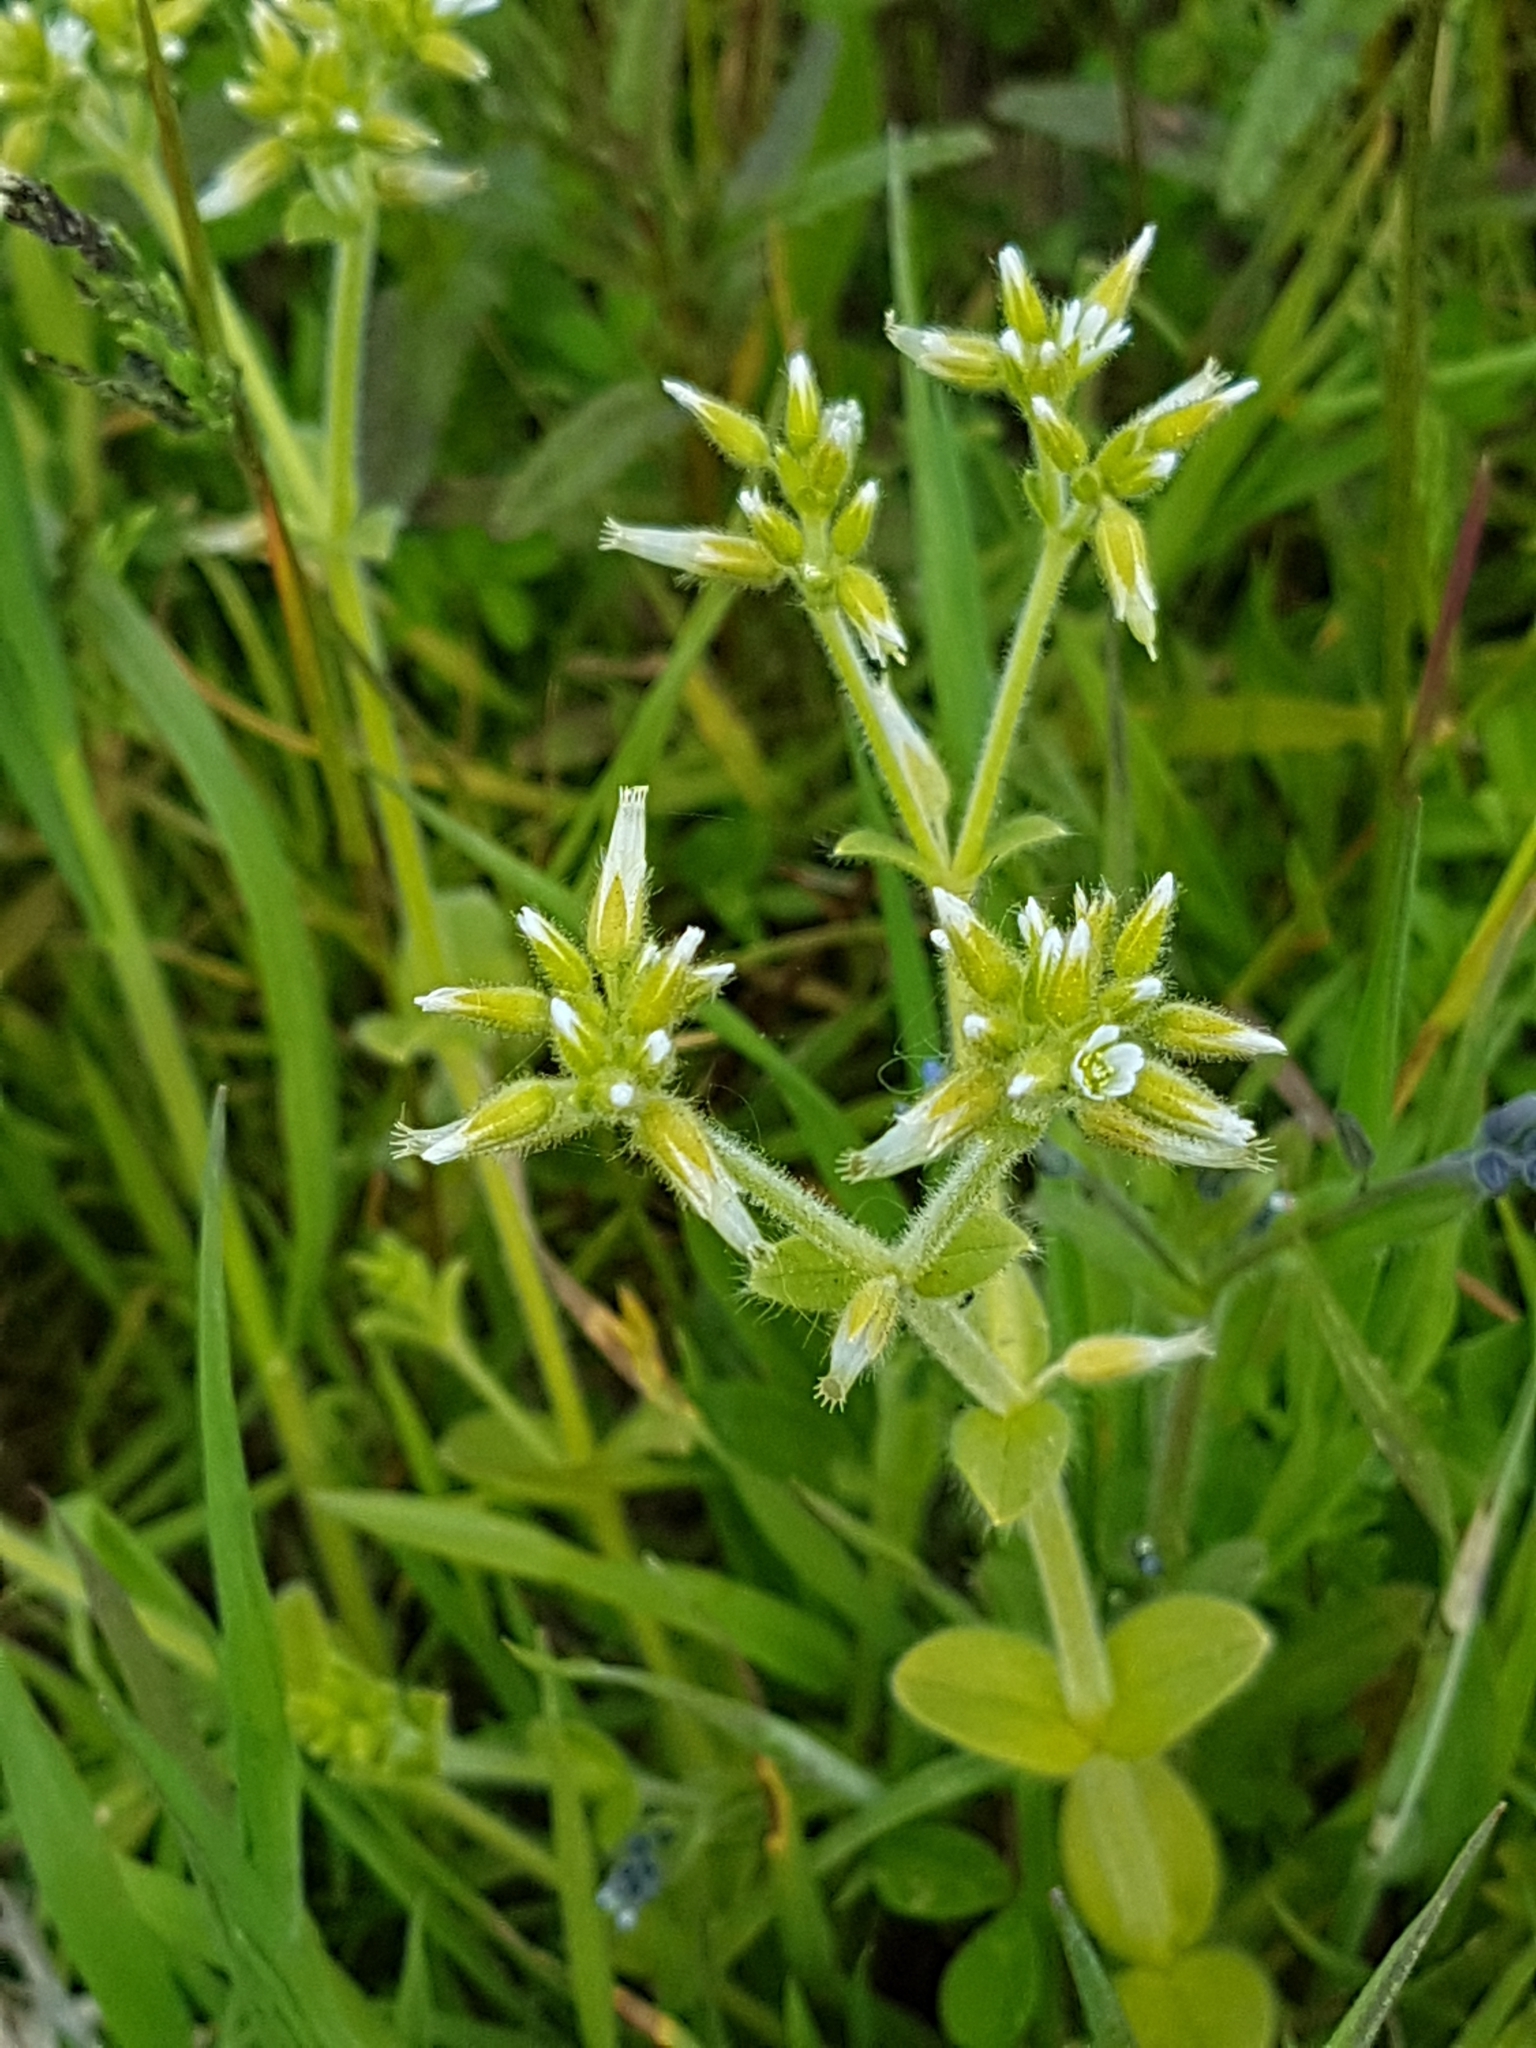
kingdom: Plantae
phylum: Tracheophyta
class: Magnoliopsida
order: Caryophyllales
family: Caryophyllaceae
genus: Cerastium
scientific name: Cerastium glomeratum
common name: Sticky chickweed
